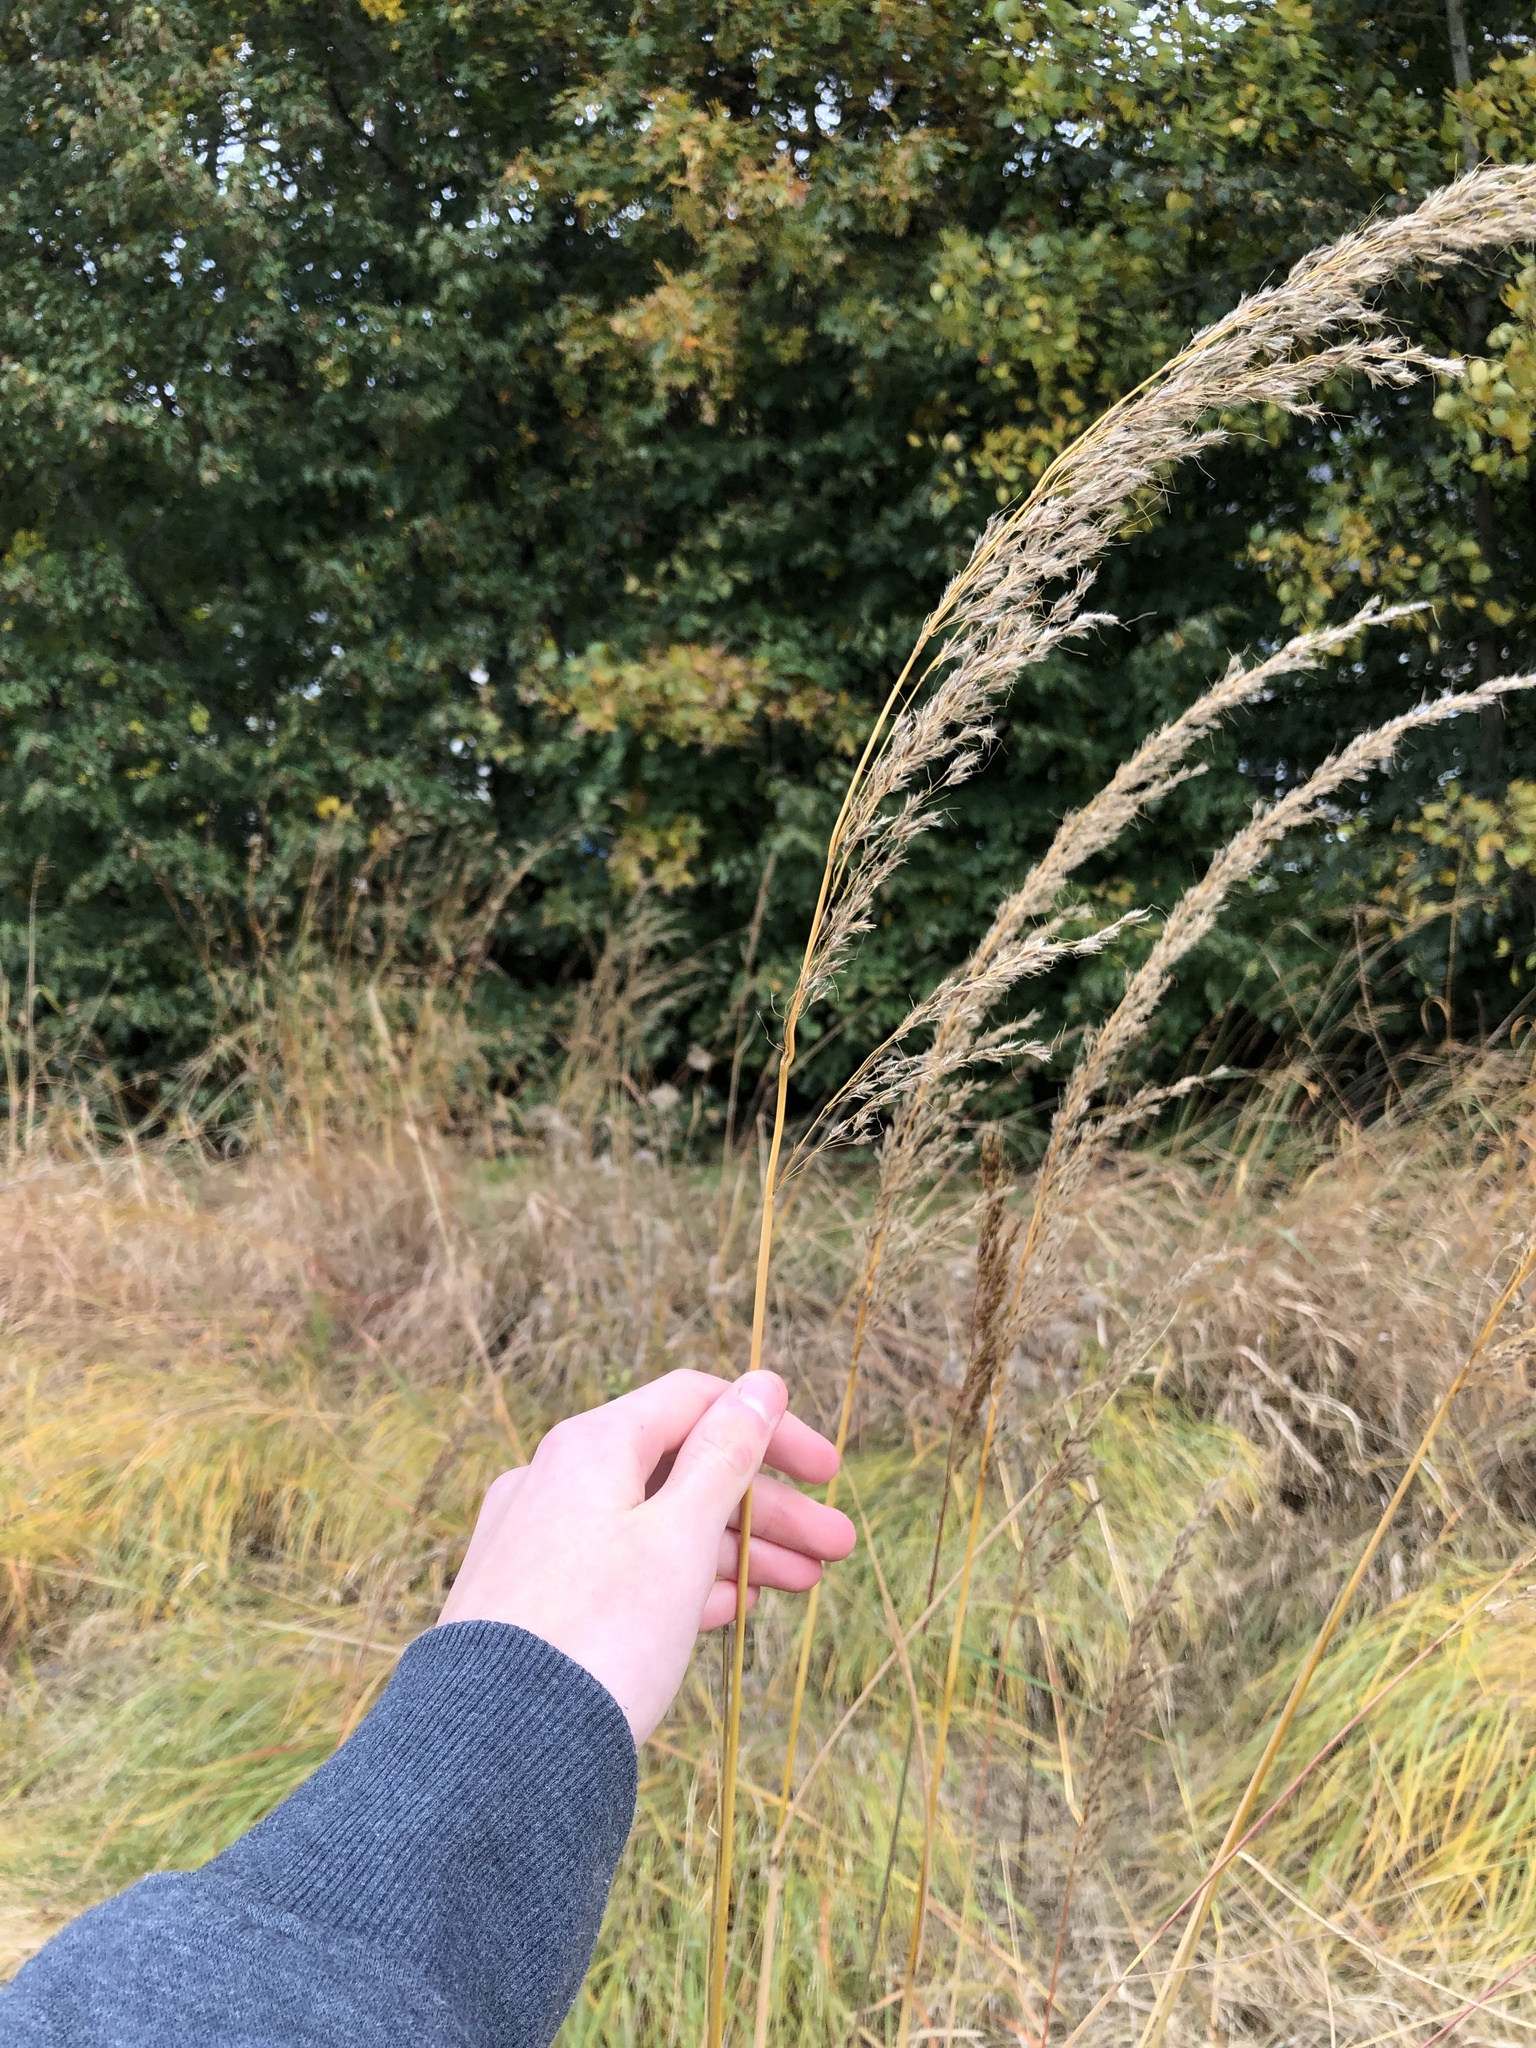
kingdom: Plantae
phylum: Tracheophyta
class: Liliopsida
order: Poales
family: Poaceae
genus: Sorghastrum
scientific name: Sorghastrum nutans
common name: Indian grass
